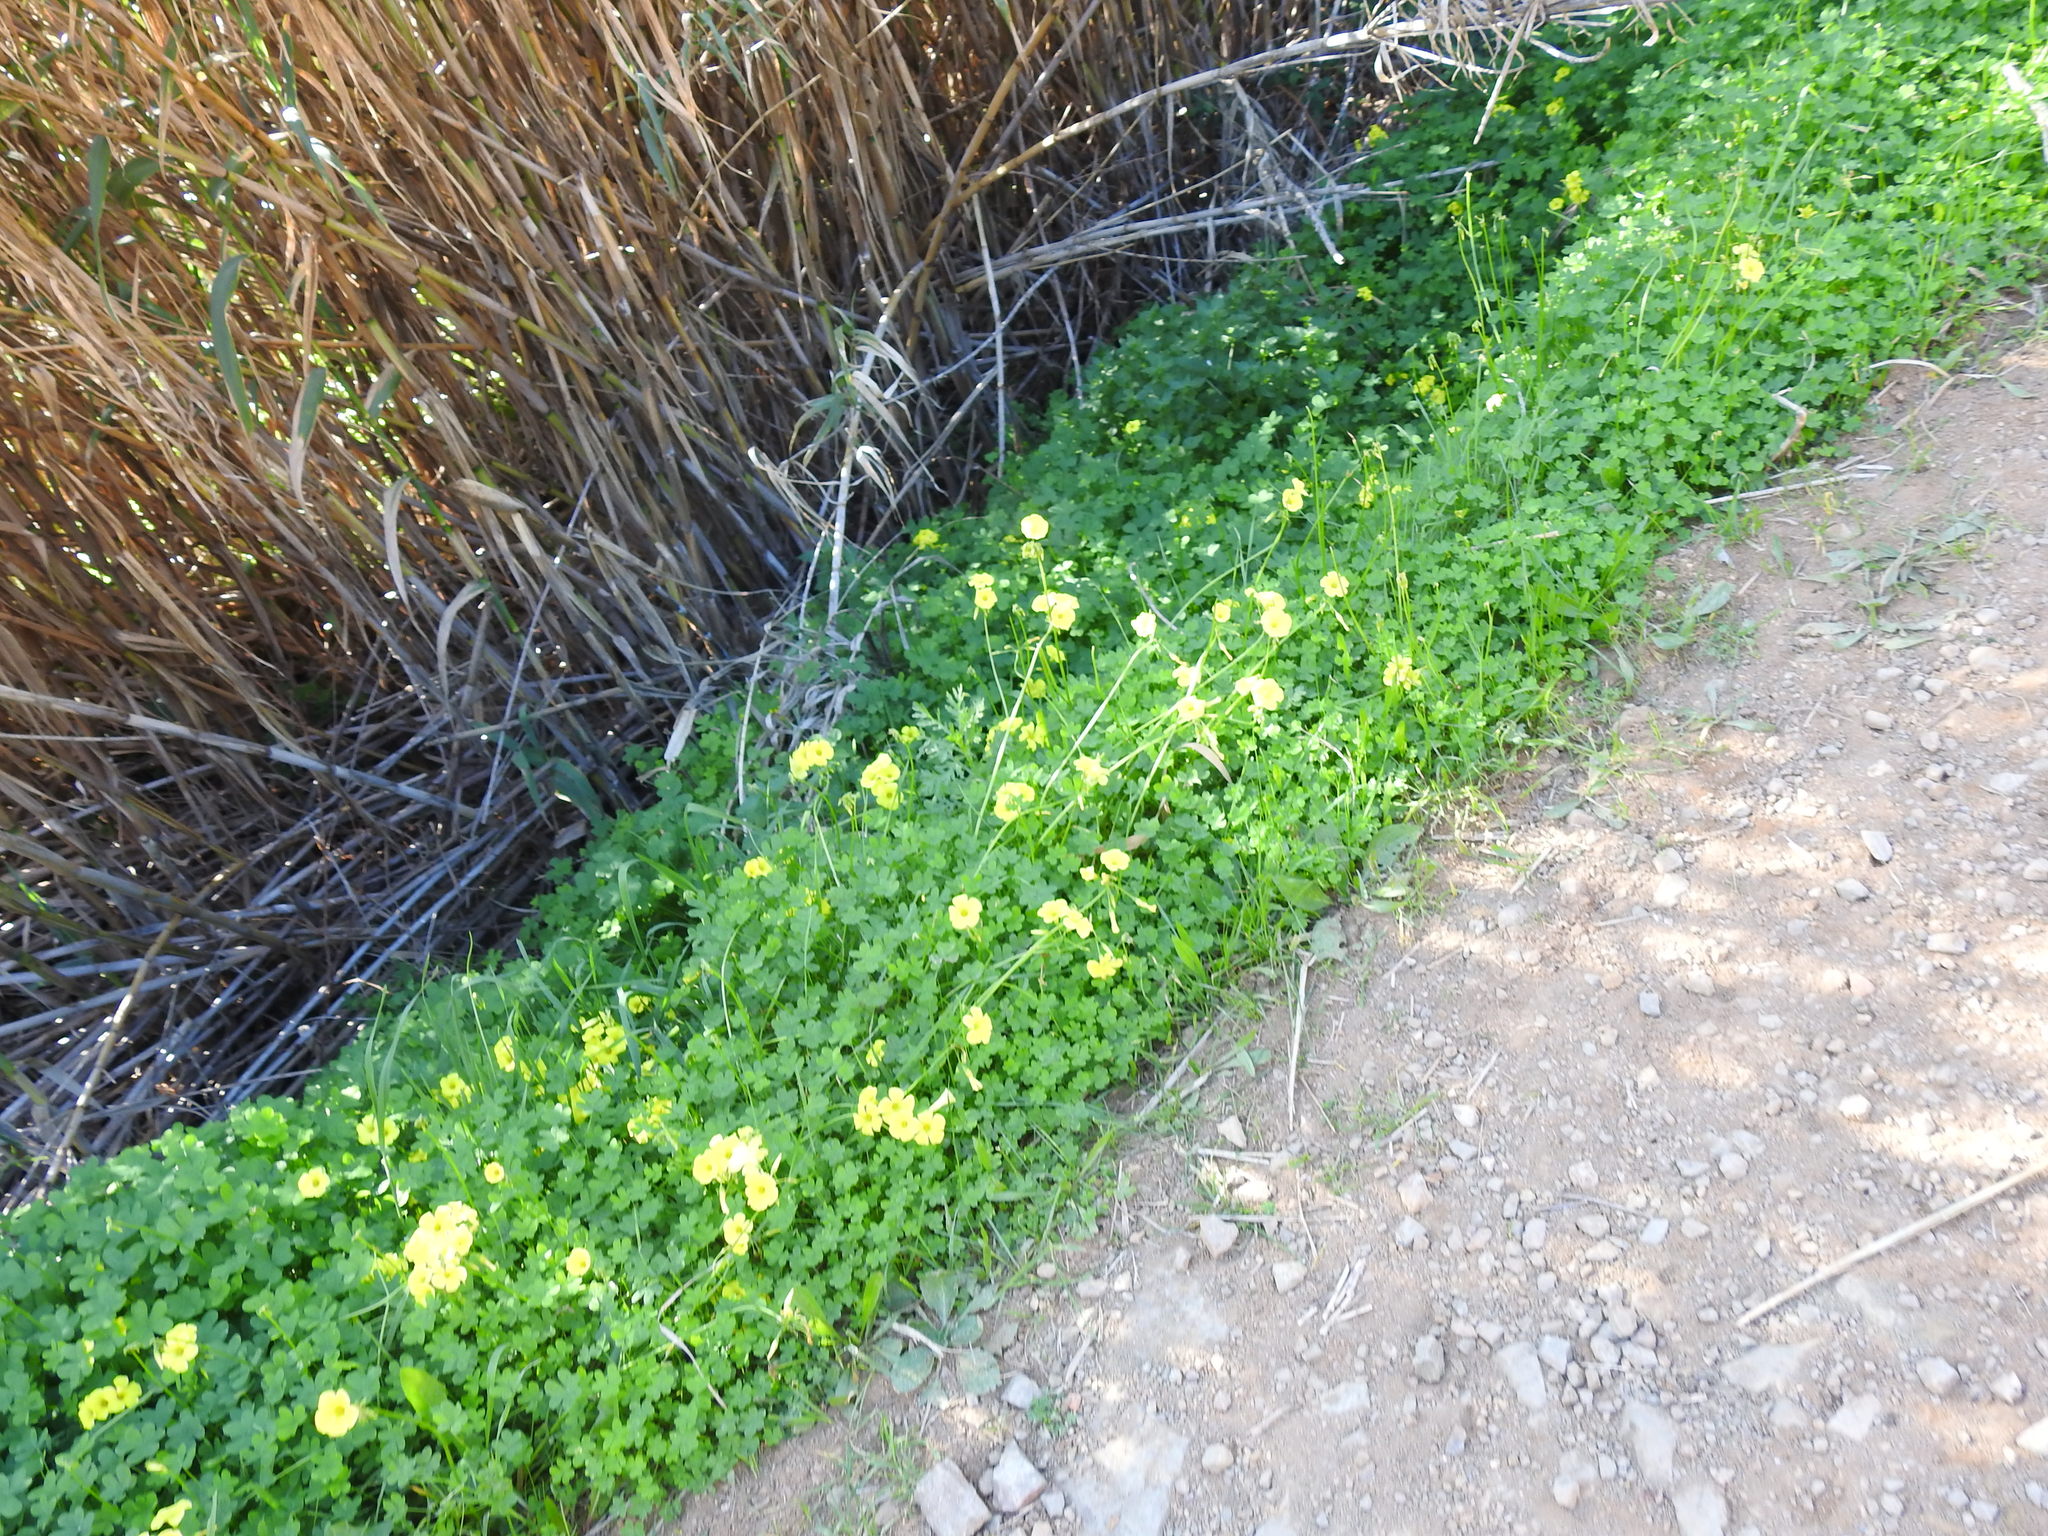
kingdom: Plantae
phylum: Tracheophyta
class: Magnoliopsida
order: Oxalidales
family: Oxalidaceae
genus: Oxalis
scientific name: Oxalis pes-caprae
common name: Bermuda-buttercup
